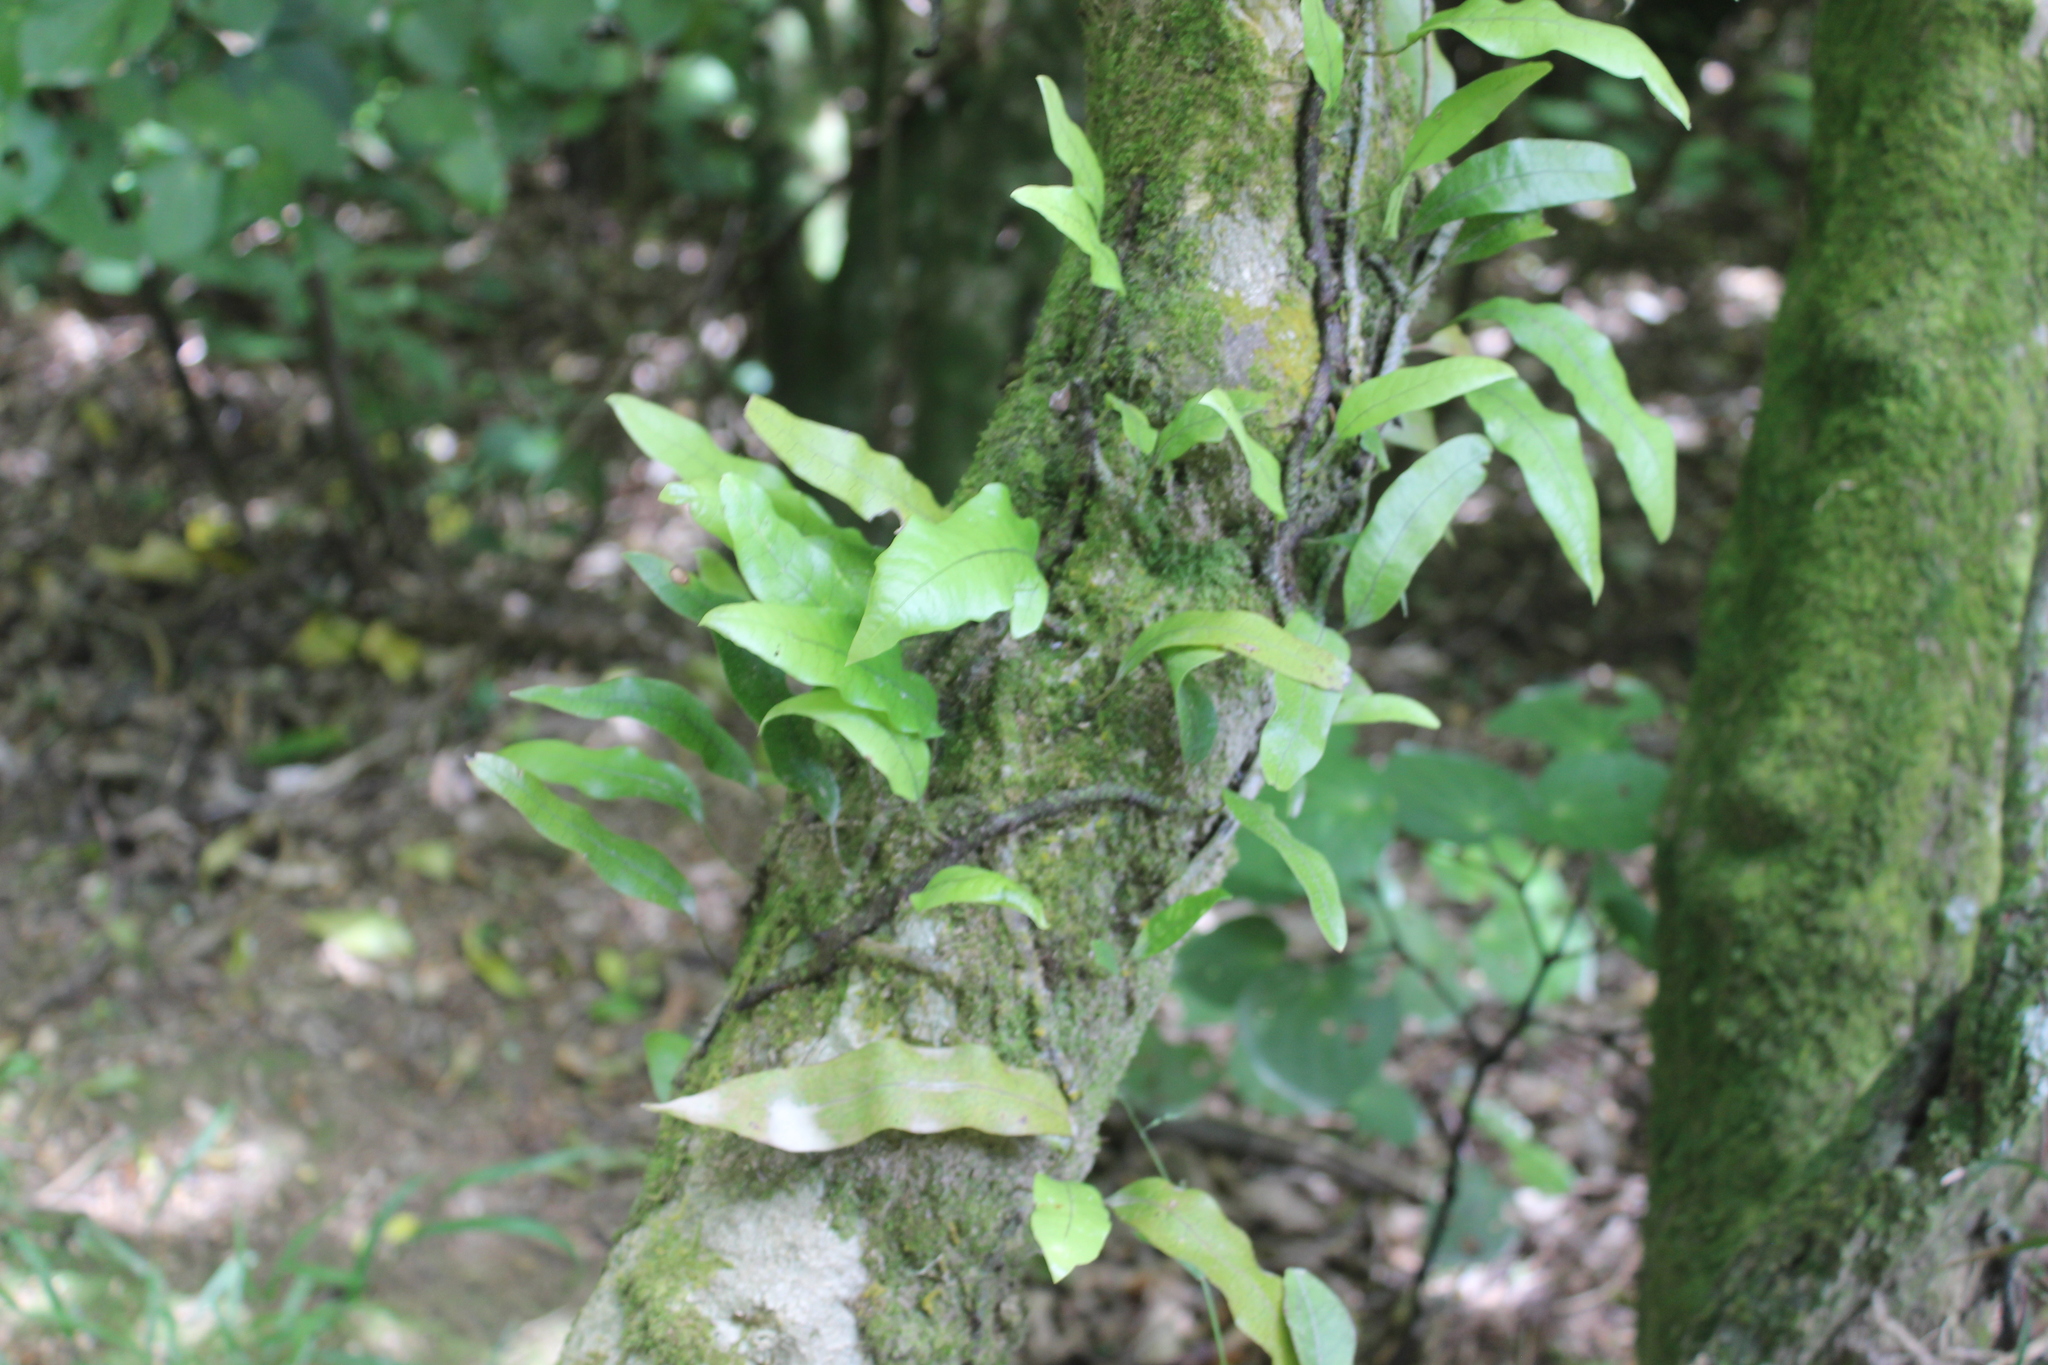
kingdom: Plantae
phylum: Tracheophyta
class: Polypodiopsida
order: Polypodiales
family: Polypodiaceae
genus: Lecanopteris
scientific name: Lecanopteris pustulata
